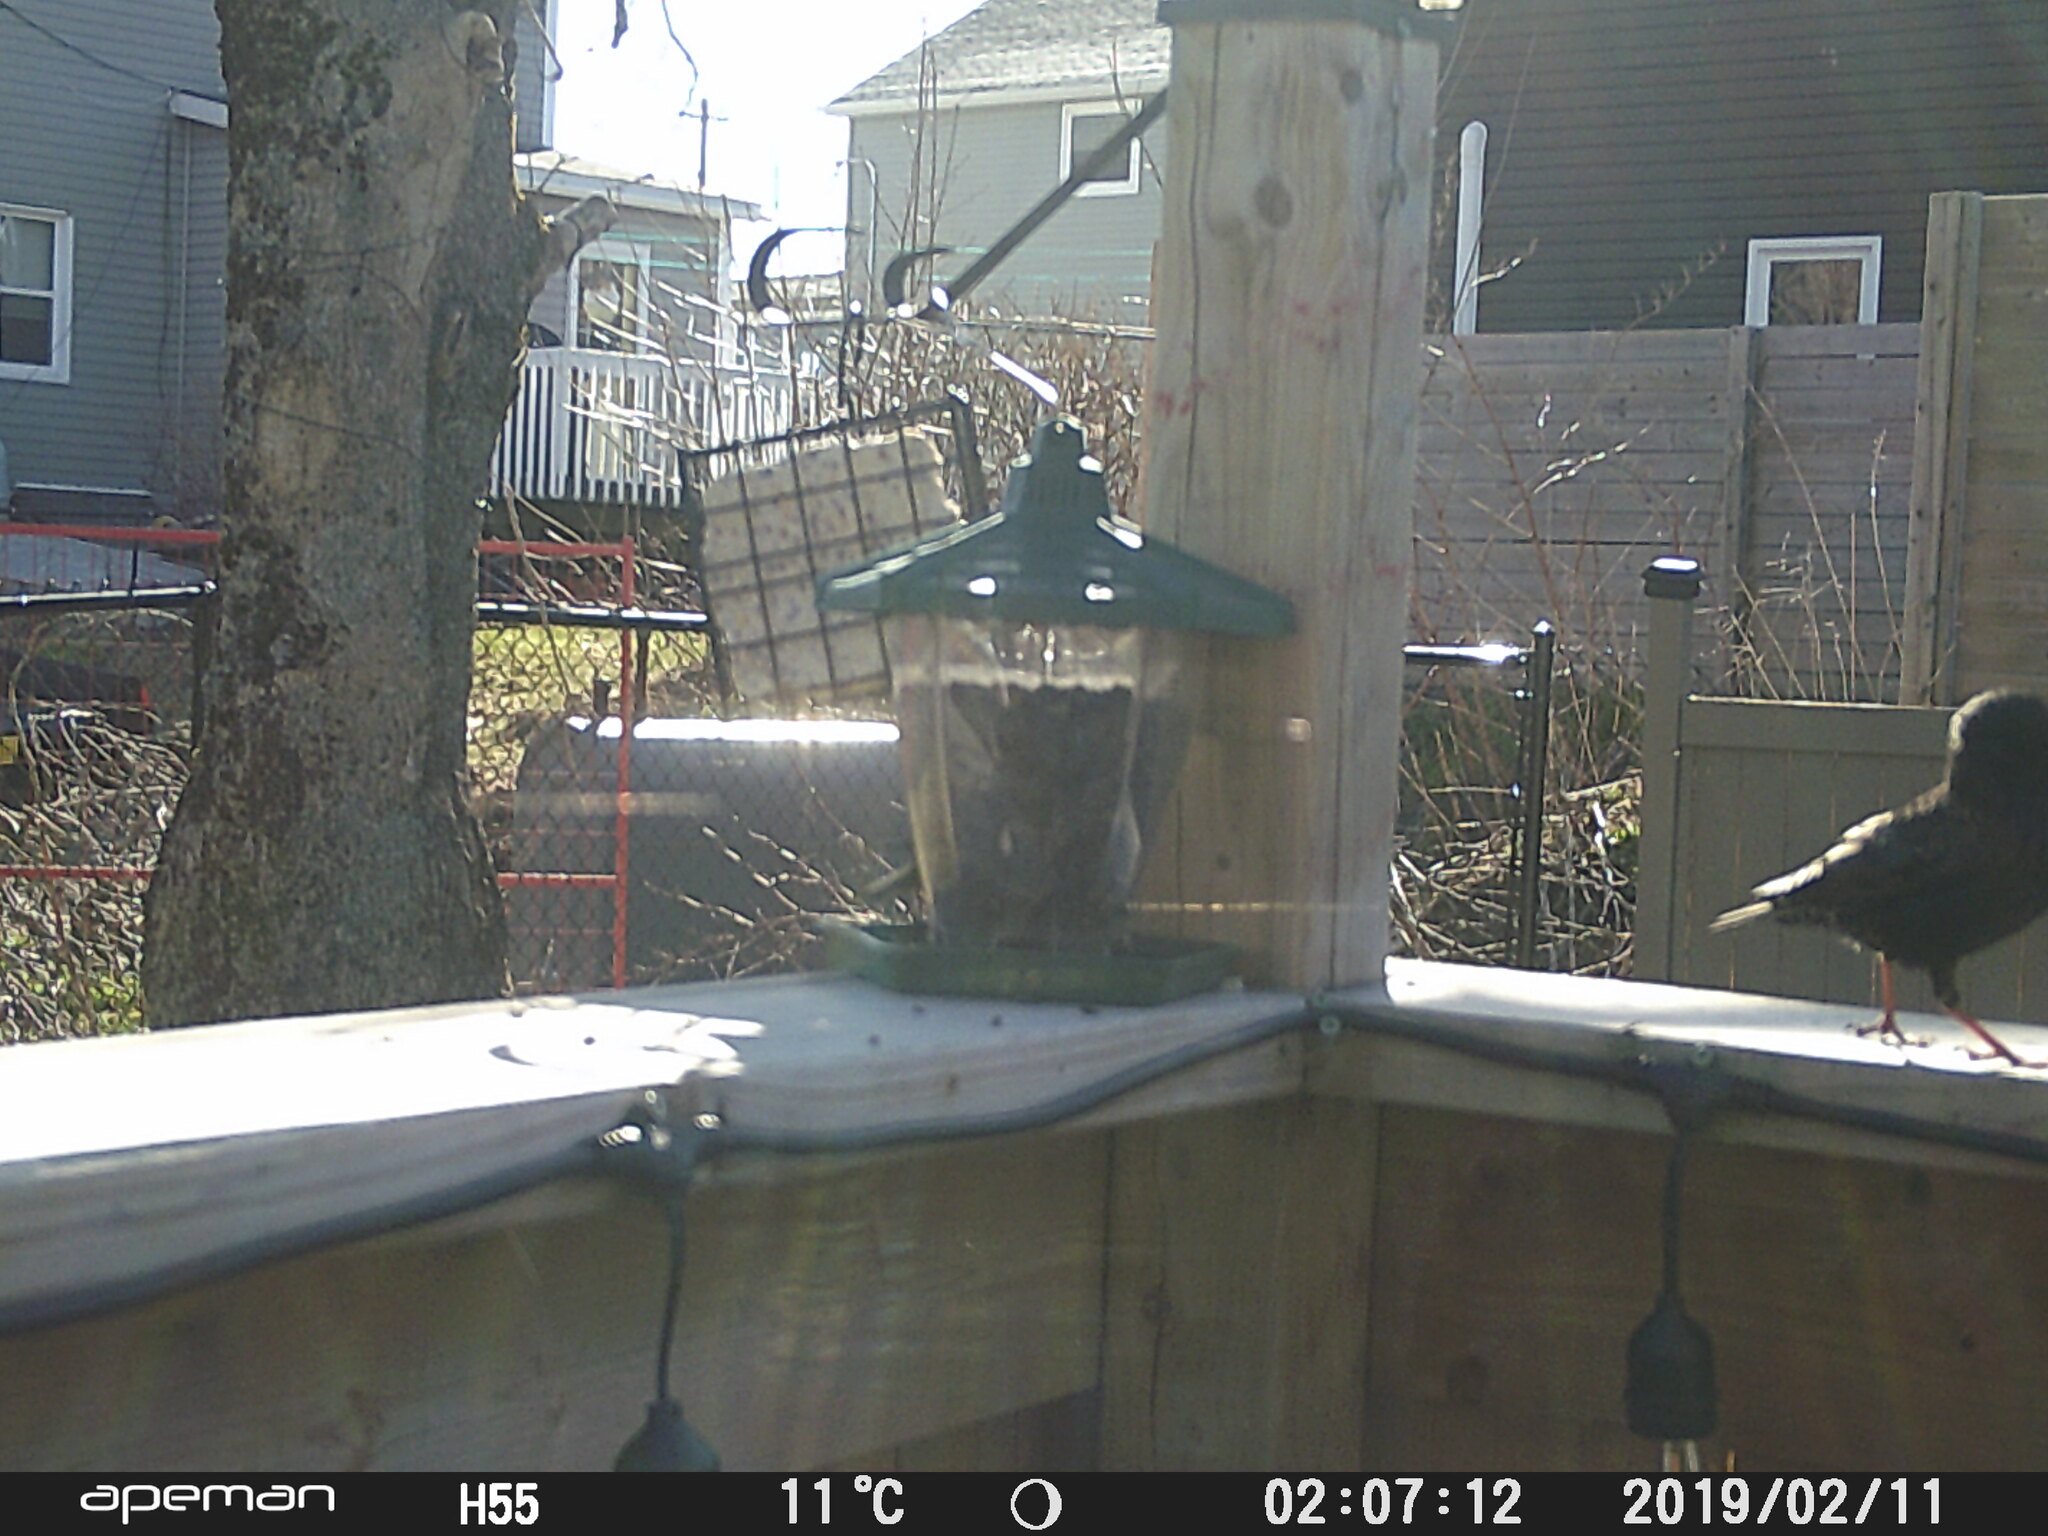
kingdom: Animalia
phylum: Chordata
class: Aves
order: Passeriformes
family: Sturnidae
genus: Sturnus
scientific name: Sturnus vulgaris
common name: Common starling
